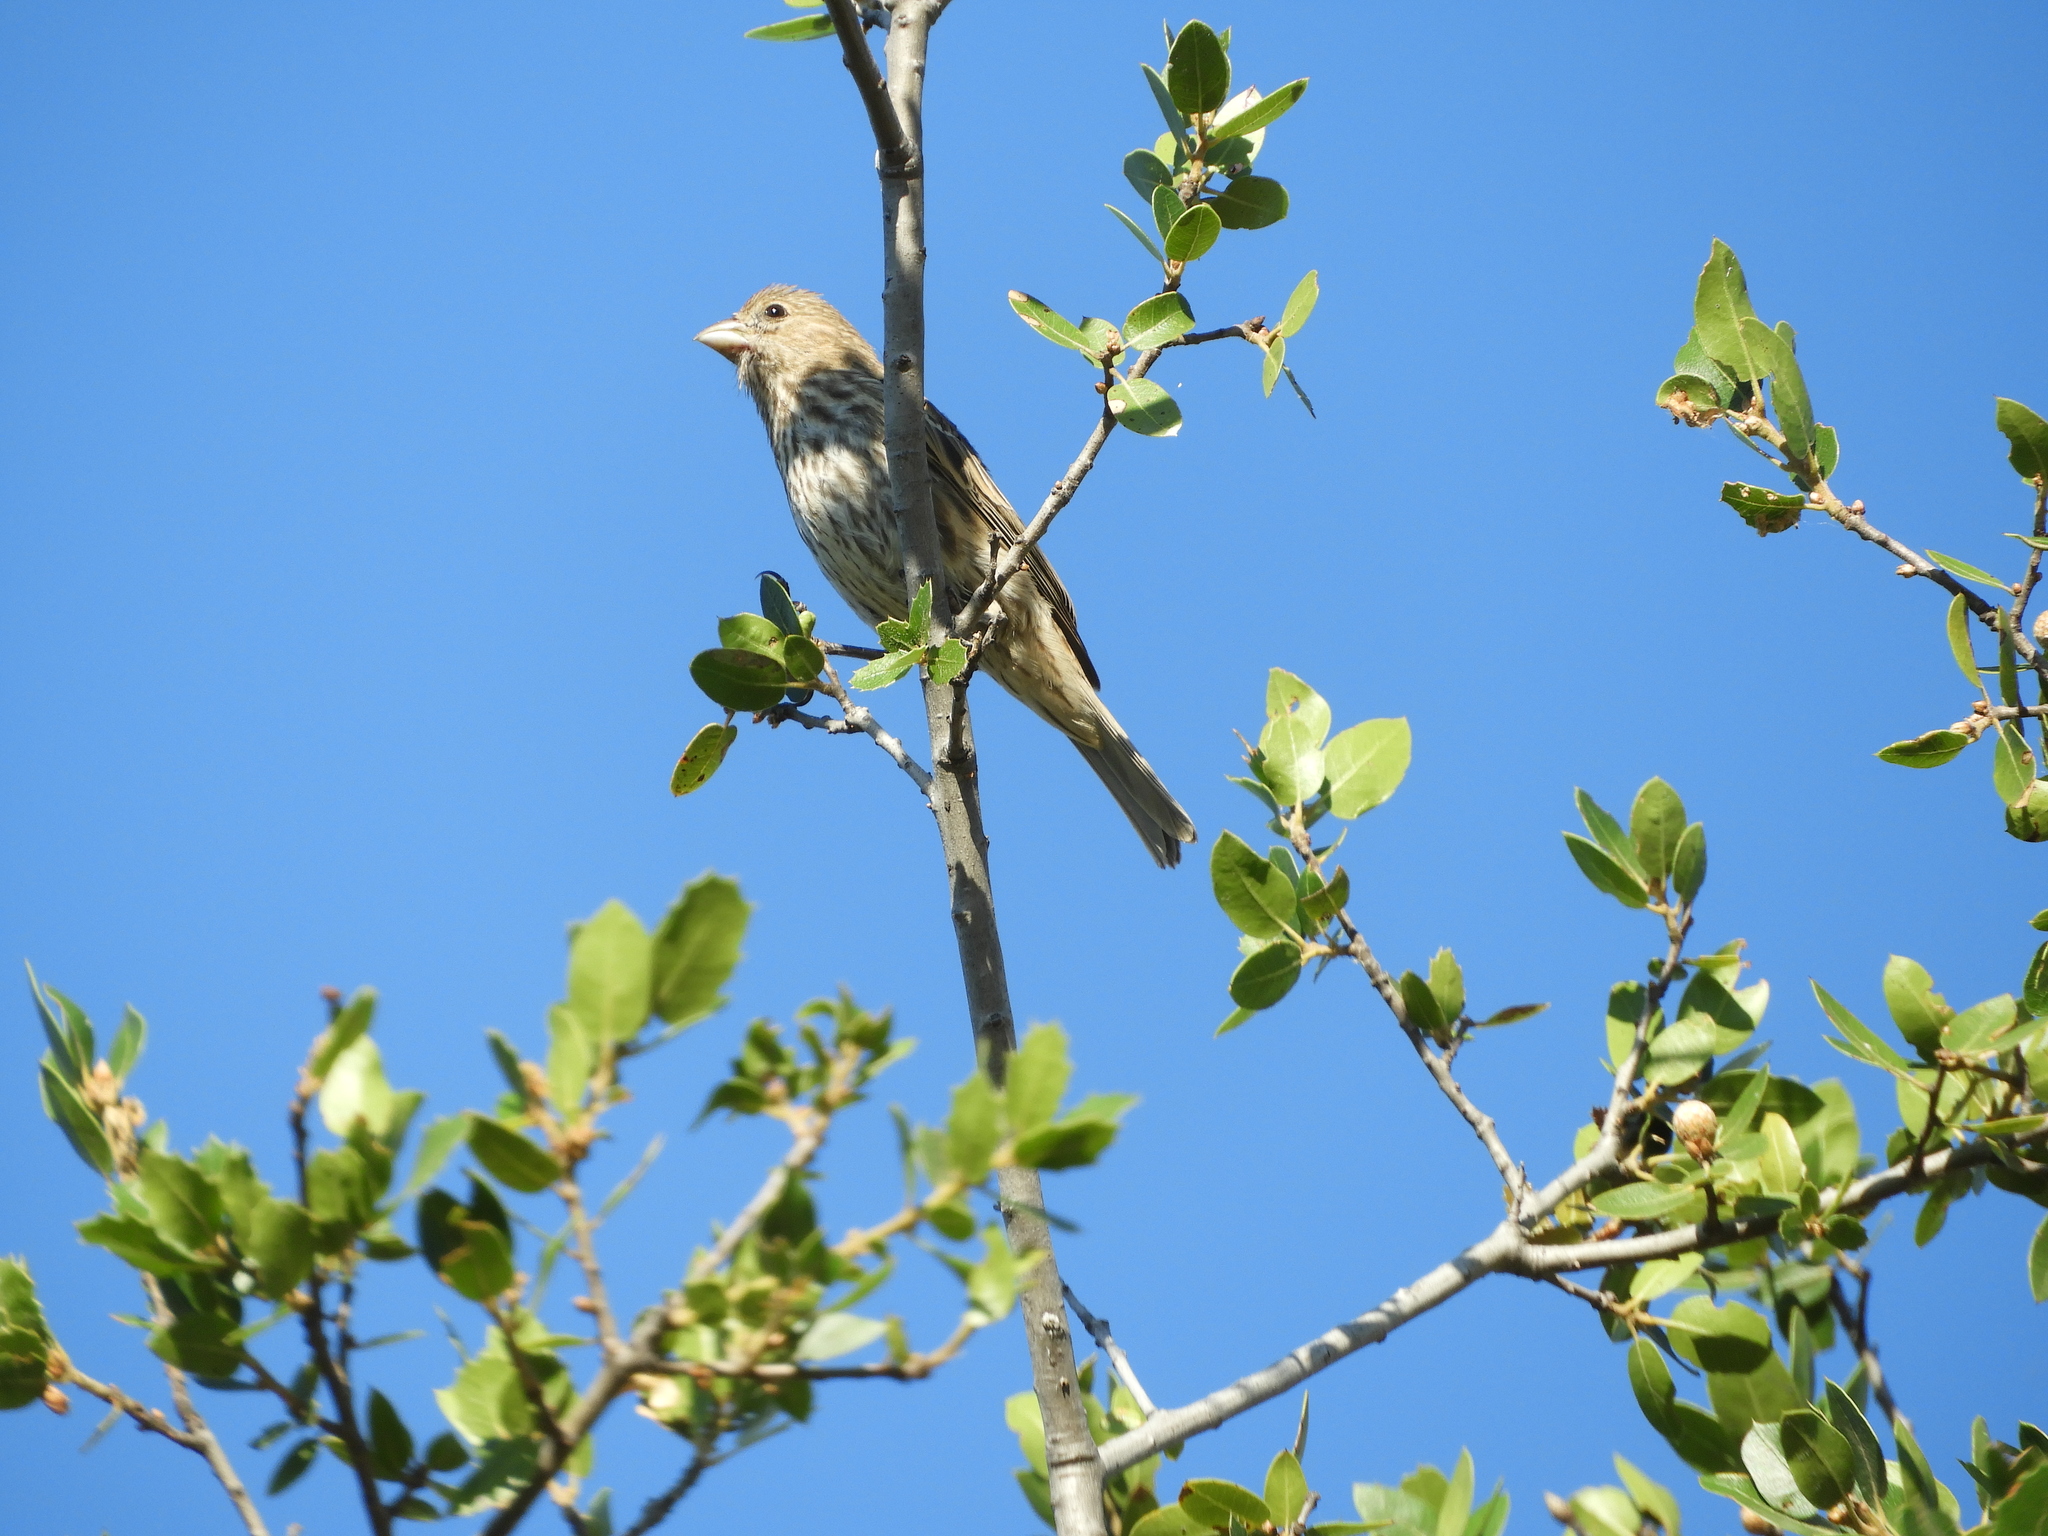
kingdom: Animalia
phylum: Chordata
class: Aves
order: Passeriformes
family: Fringillidae
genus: Haemorhous
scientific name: Haemorhous mexicanus
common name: House finch
